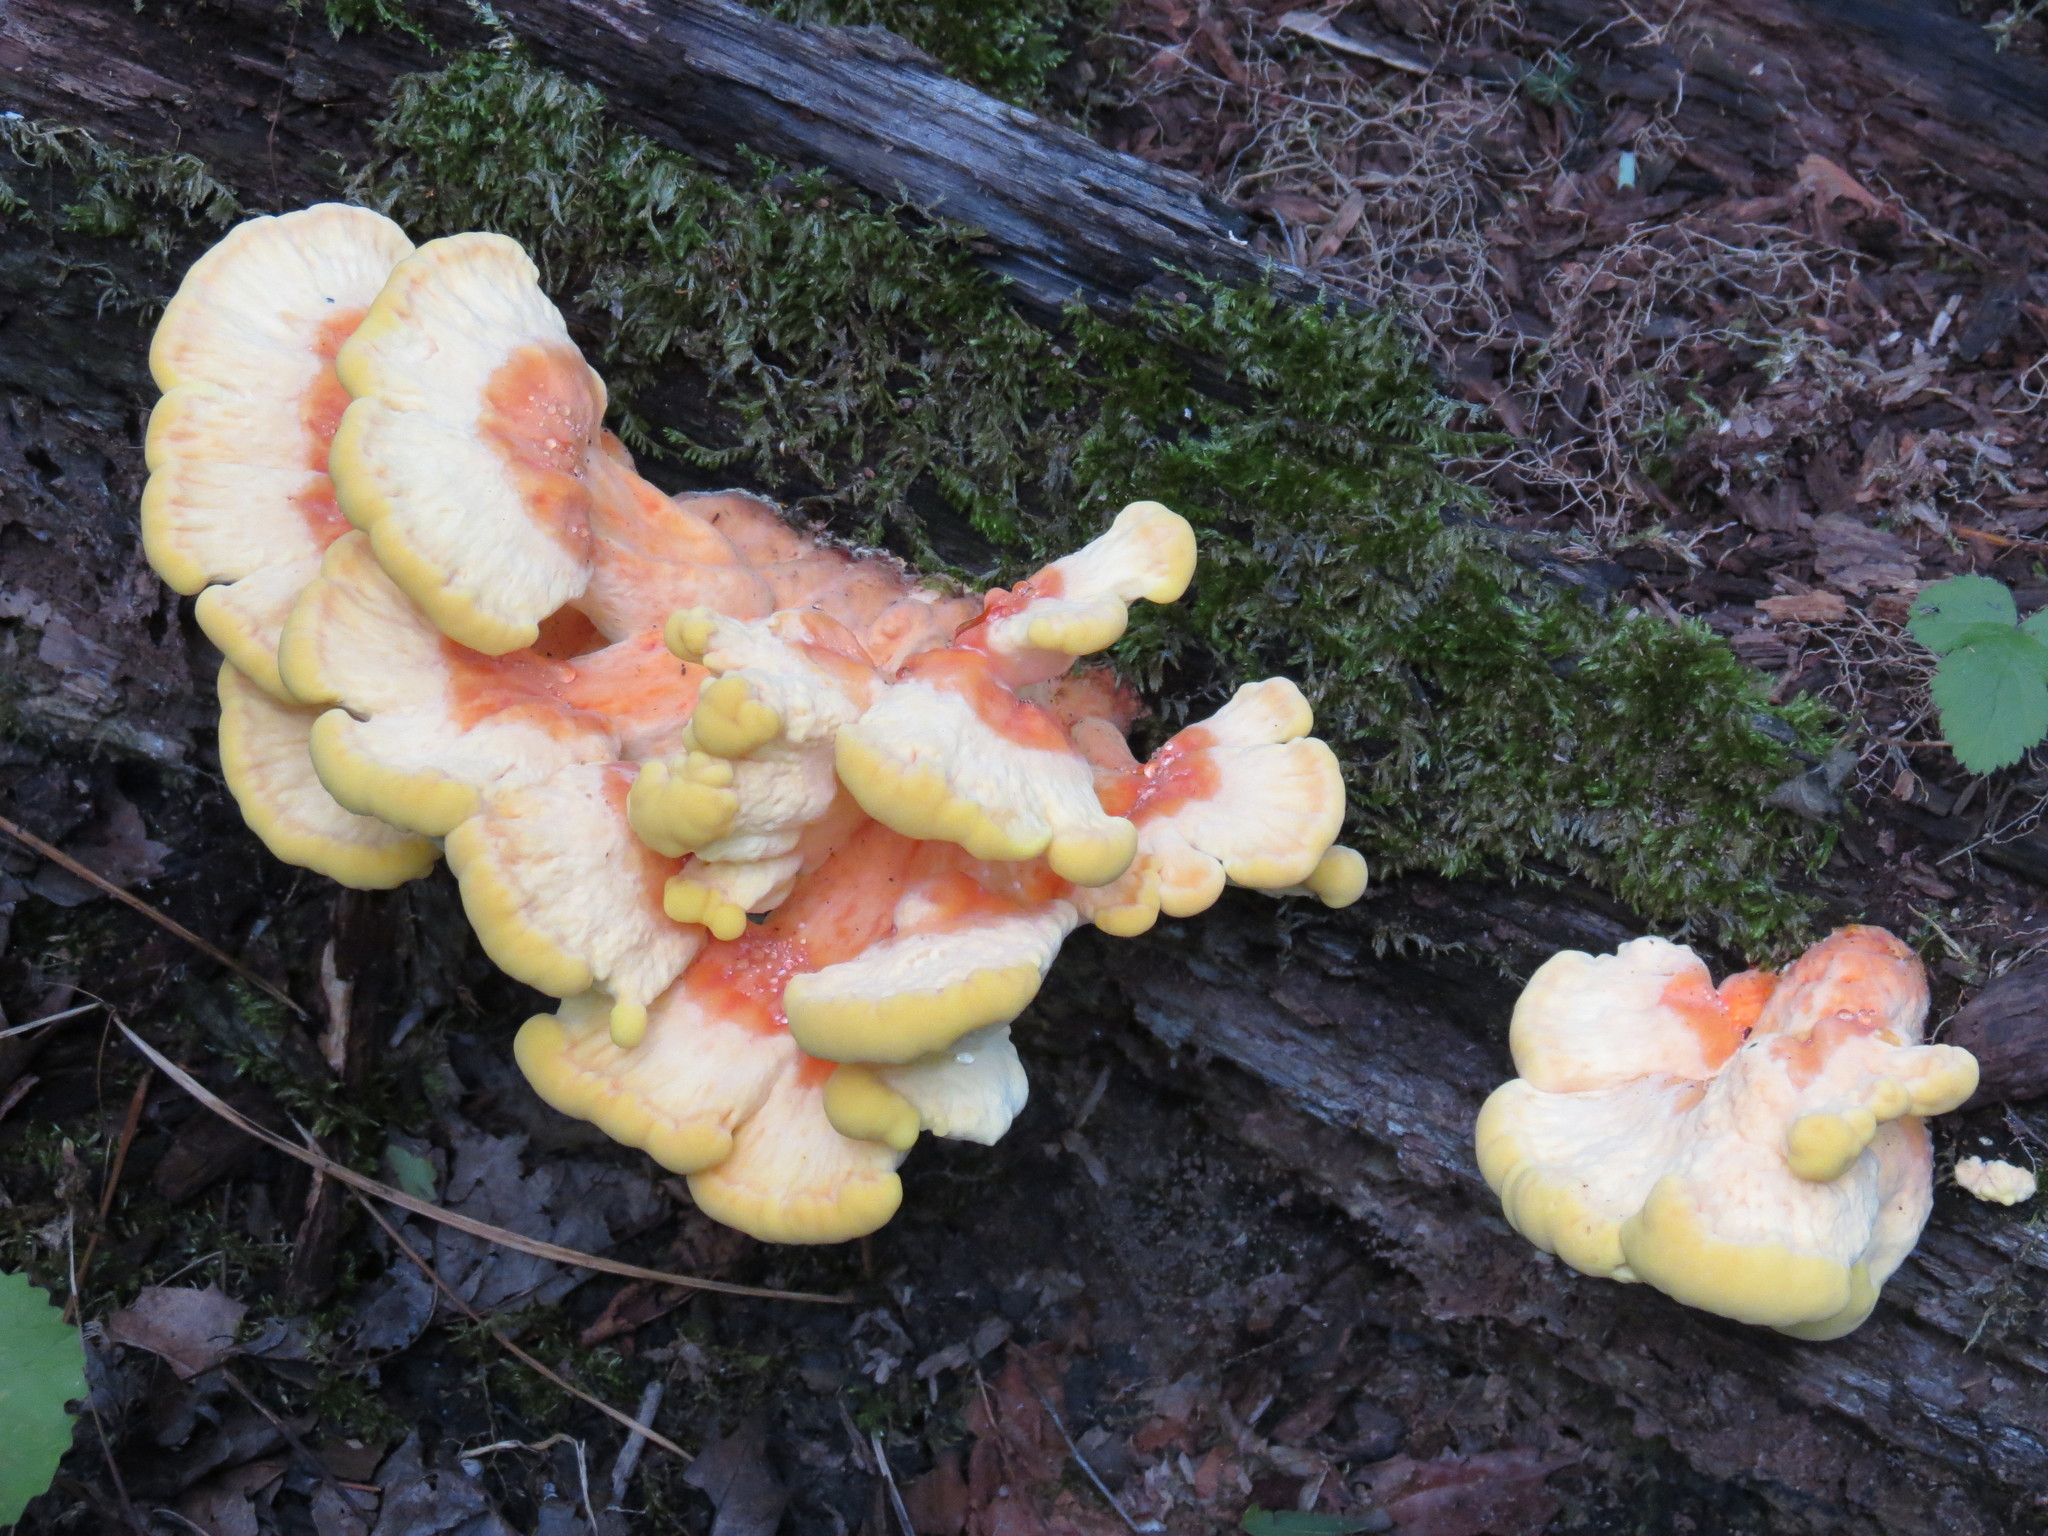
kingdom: Fungi
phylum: Basidiomycota
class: Agaricomycetes
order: Polyporales
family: Laetiporaceae
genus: Laetiporus
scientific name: Laetiporus sulphureus
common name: Chicken of the woods
